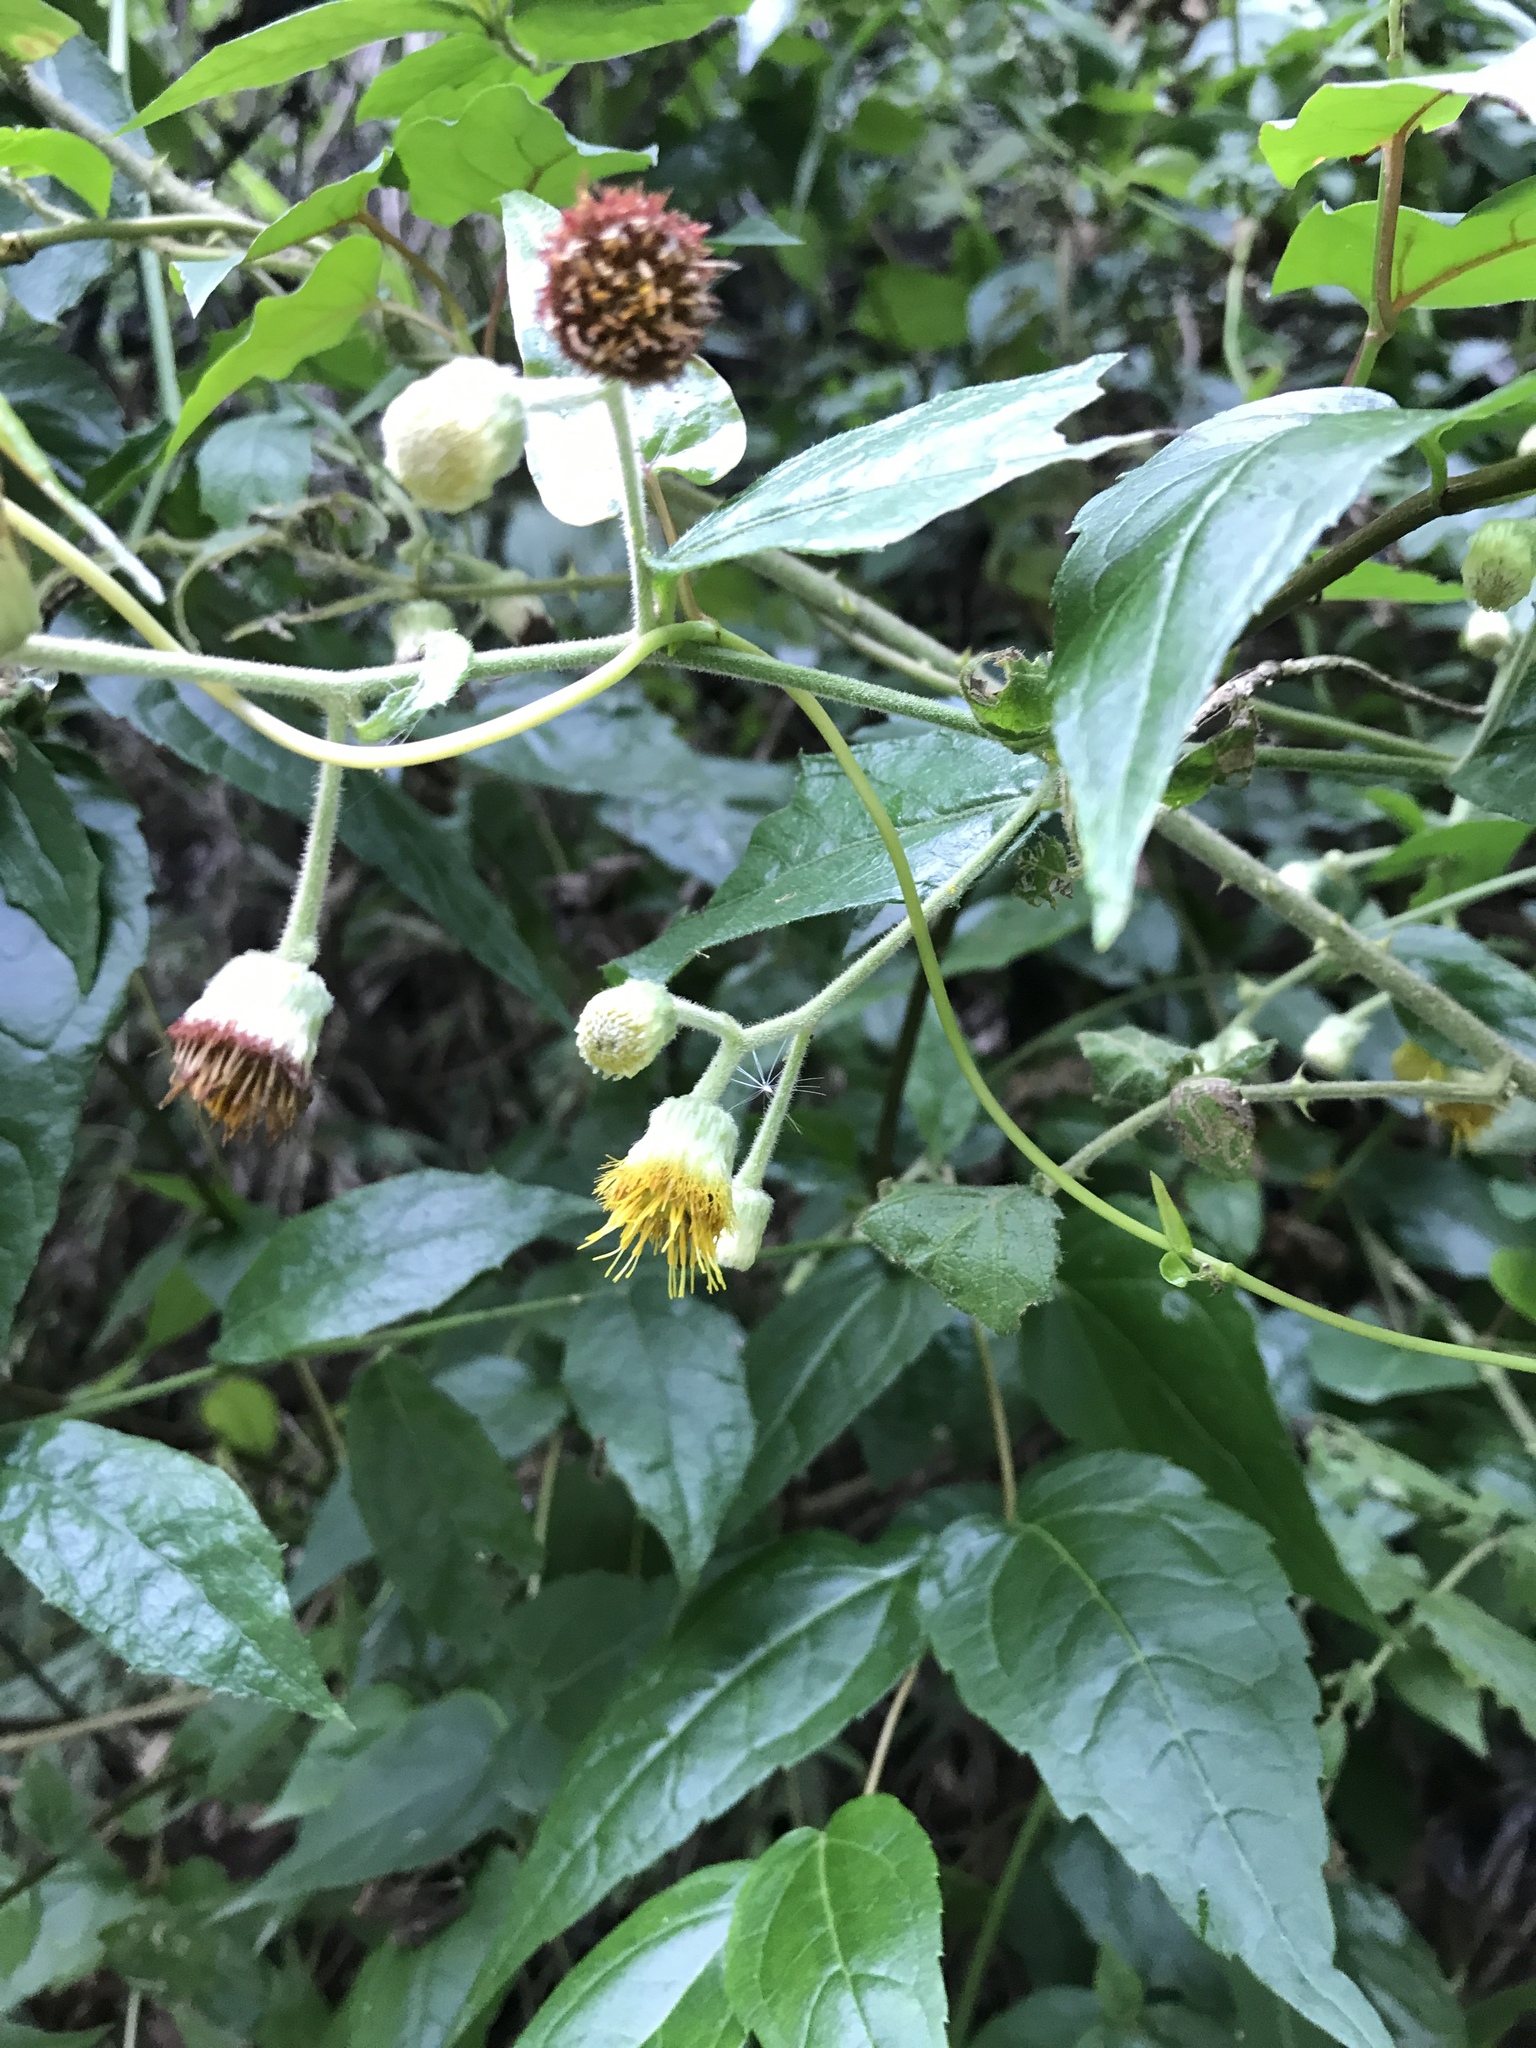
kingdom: Plantae
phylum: Tracheophyta
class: Magnoliopsida
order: Asterales
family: Asteraceae
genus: Blumea
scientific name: Blumea megacephala
